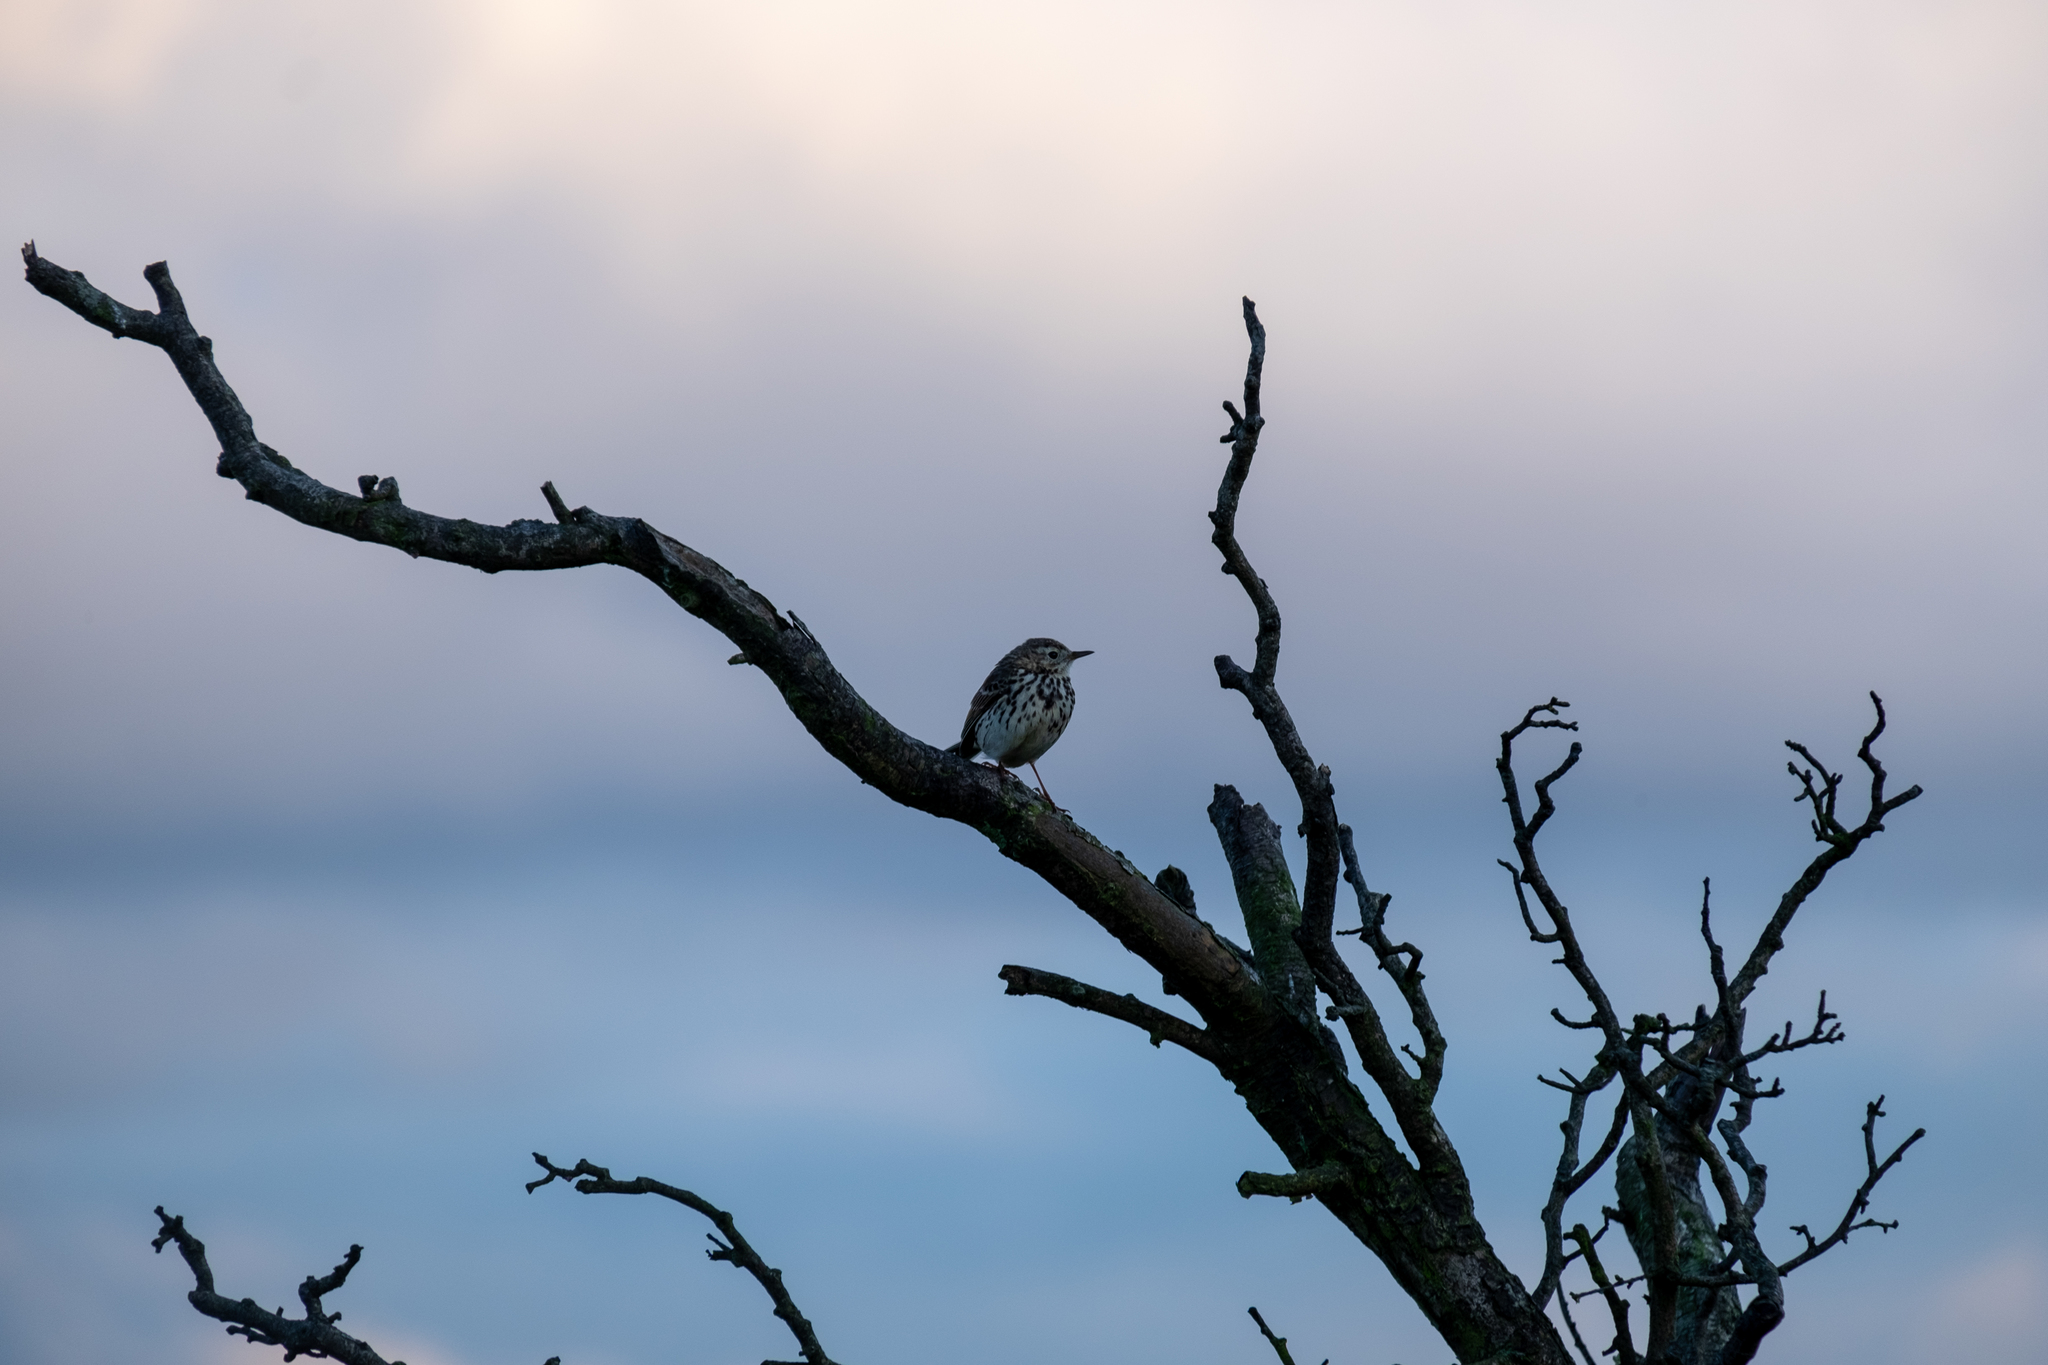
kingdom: Animalia
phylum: Chordata
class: Aves
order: Passeriformes
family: Motacillidae
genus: Anthus
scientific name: Anthus pratensis
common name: Meadow pipit
